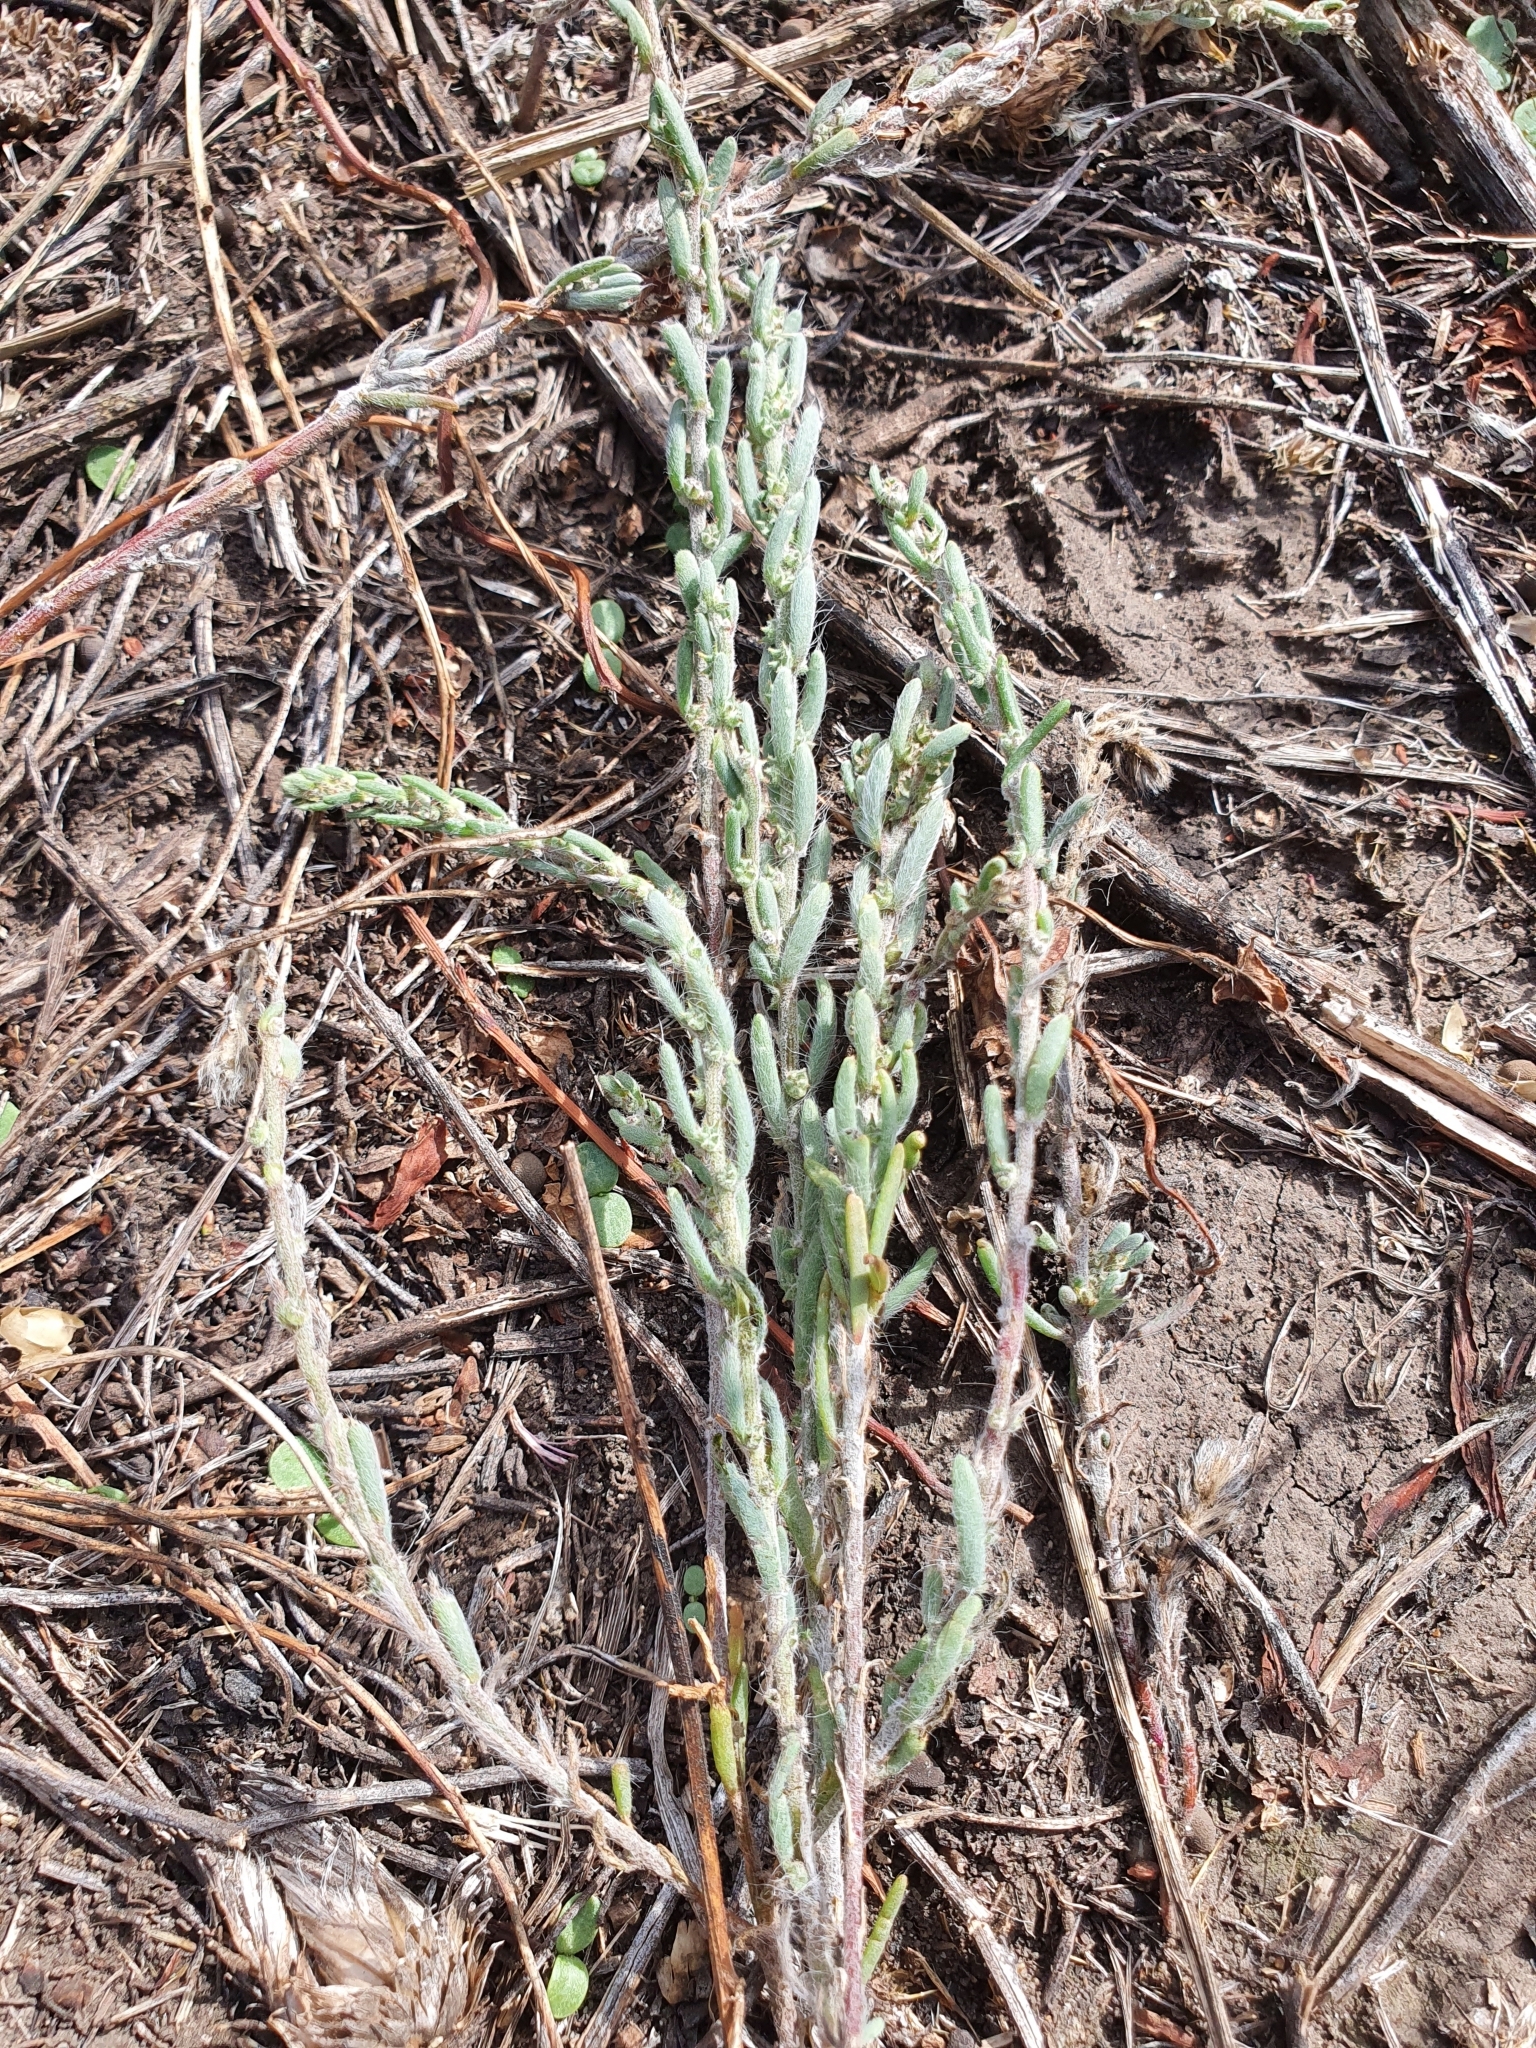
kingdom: Plantae
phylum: Tracheophyta
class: Magnoliopsida
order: Caryophyllales
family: Amaranthaceae
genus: Sedobassia
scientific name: Sedobassia sedoides
